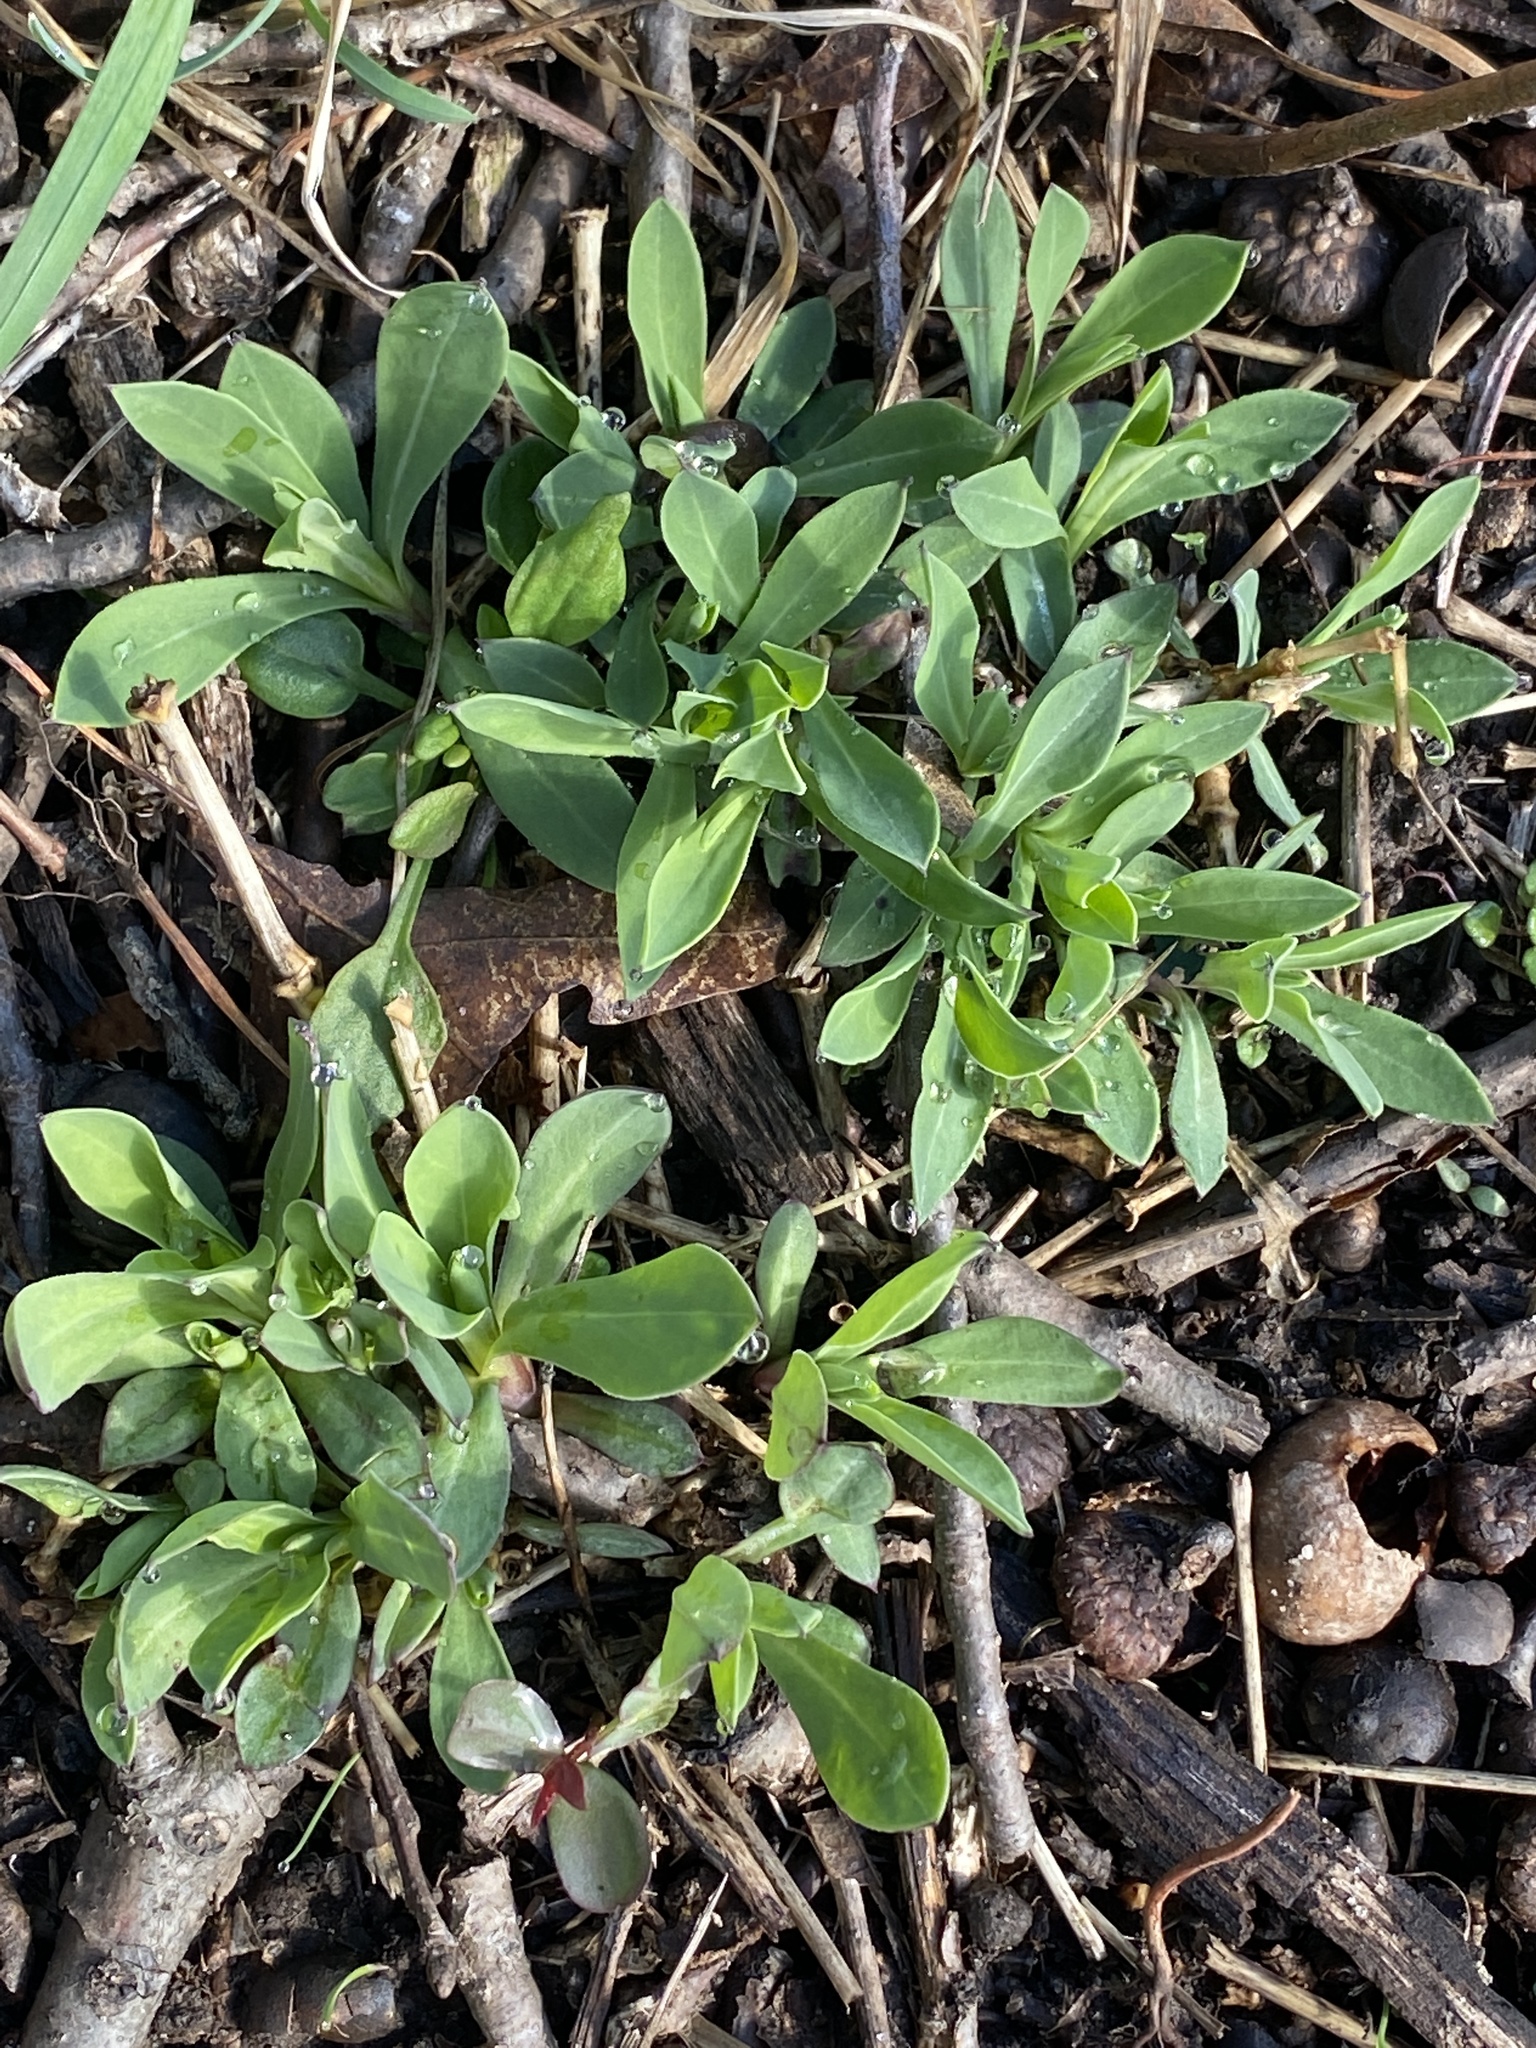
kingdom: Plantae
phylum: Tracheophyta
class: Magnoliopsida
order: Caryophyllales
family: Caryophyllaceae
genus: Silene
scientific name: Silene vulgaris
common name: Bladder campion
